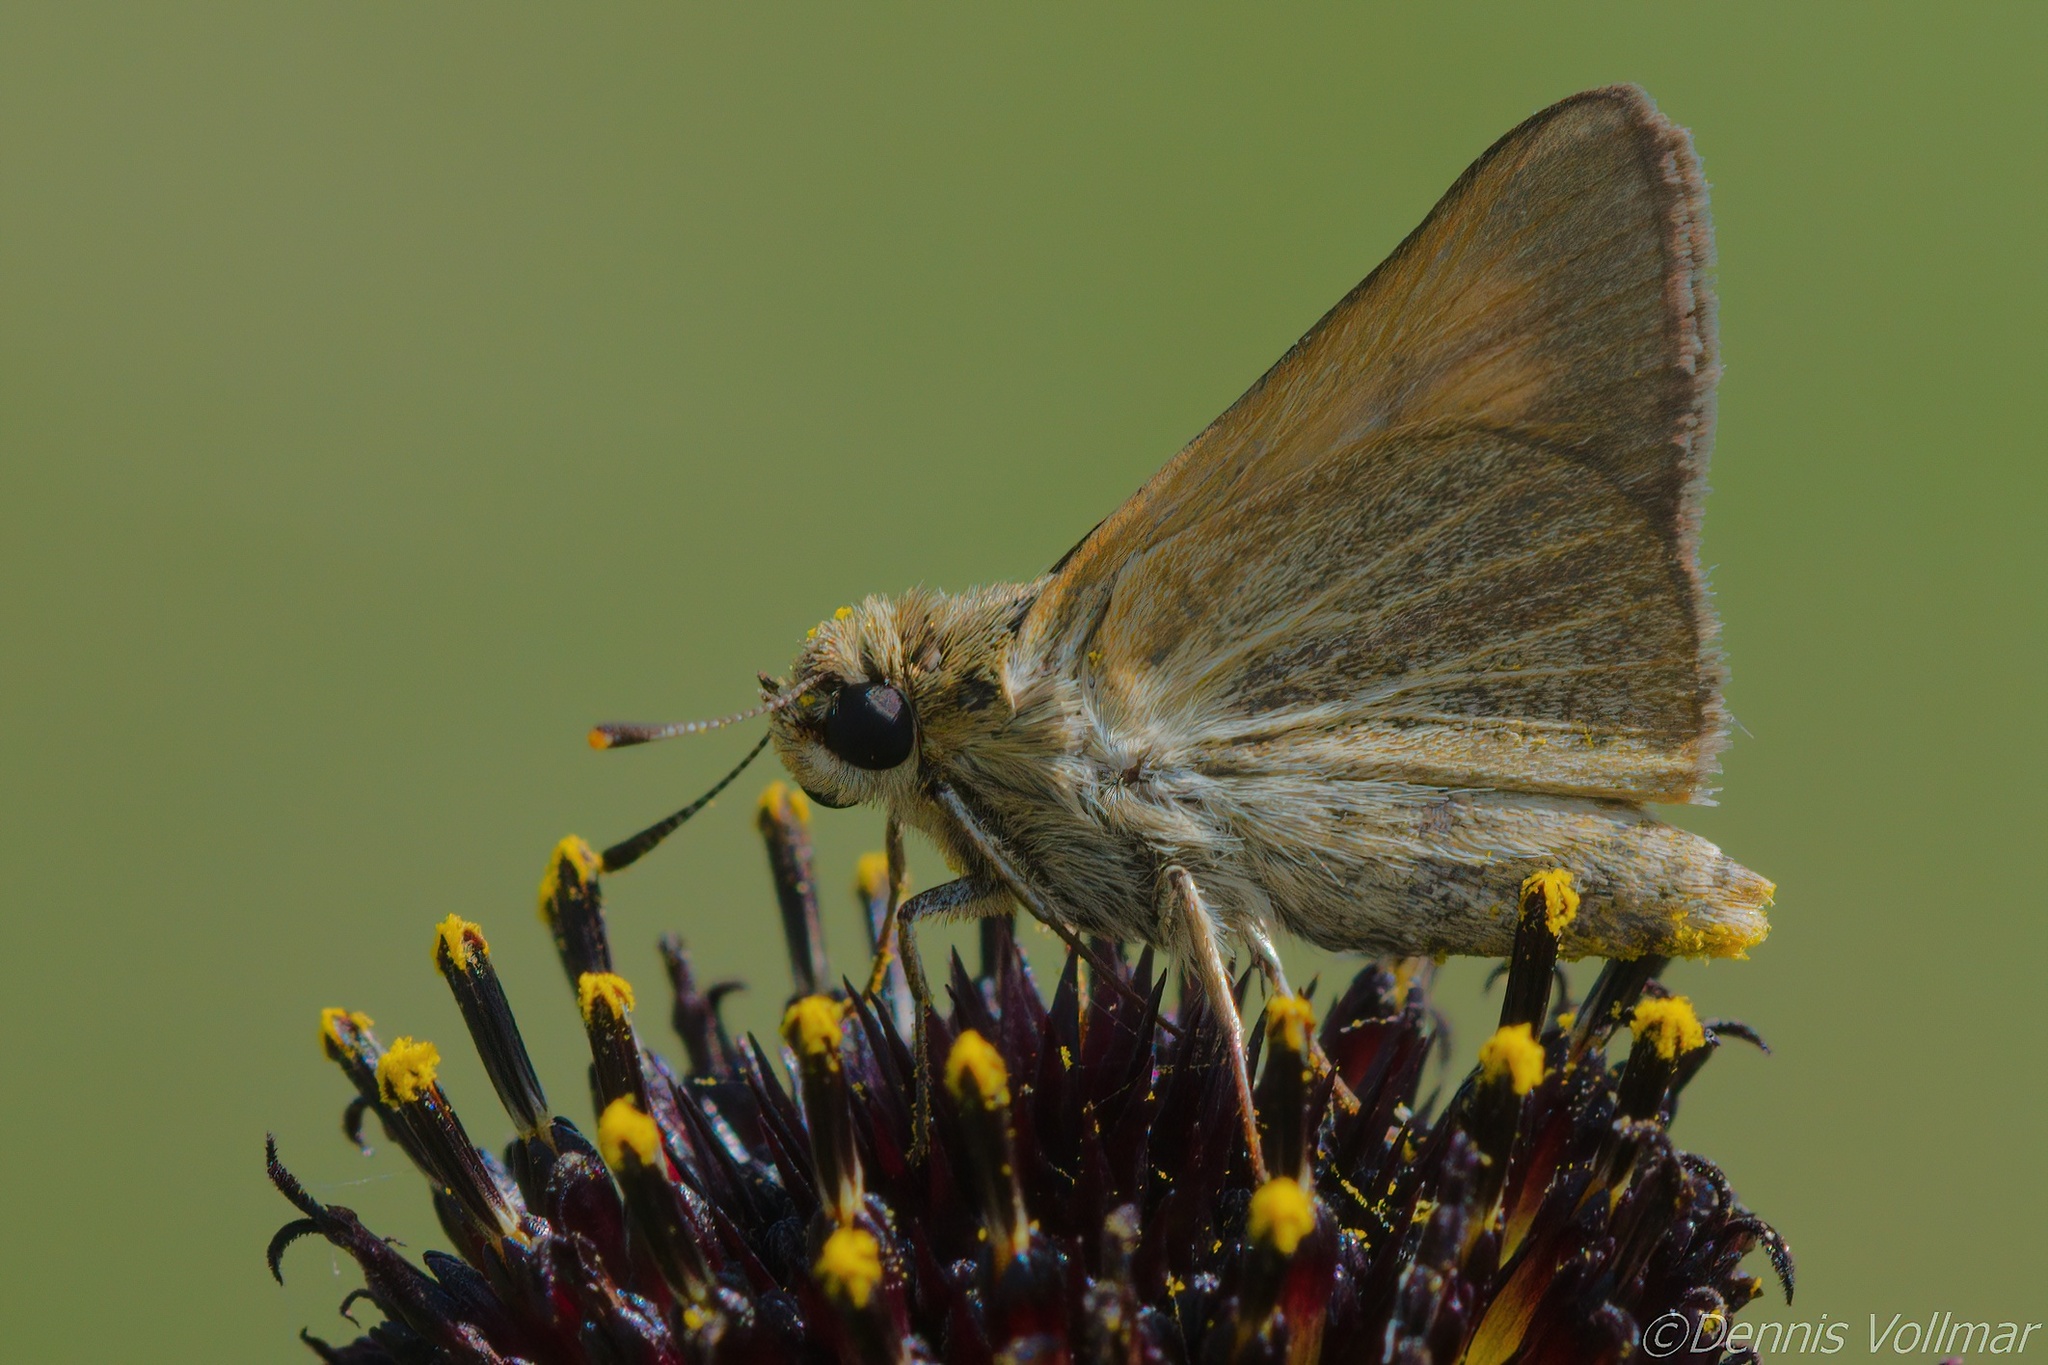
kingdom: Animalia
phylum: Arthropoda
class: Insecta
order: Lepidoptera
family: Hesperiidae
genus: Atrytone
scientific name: Atrytone arogos
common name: Arogos skipper
